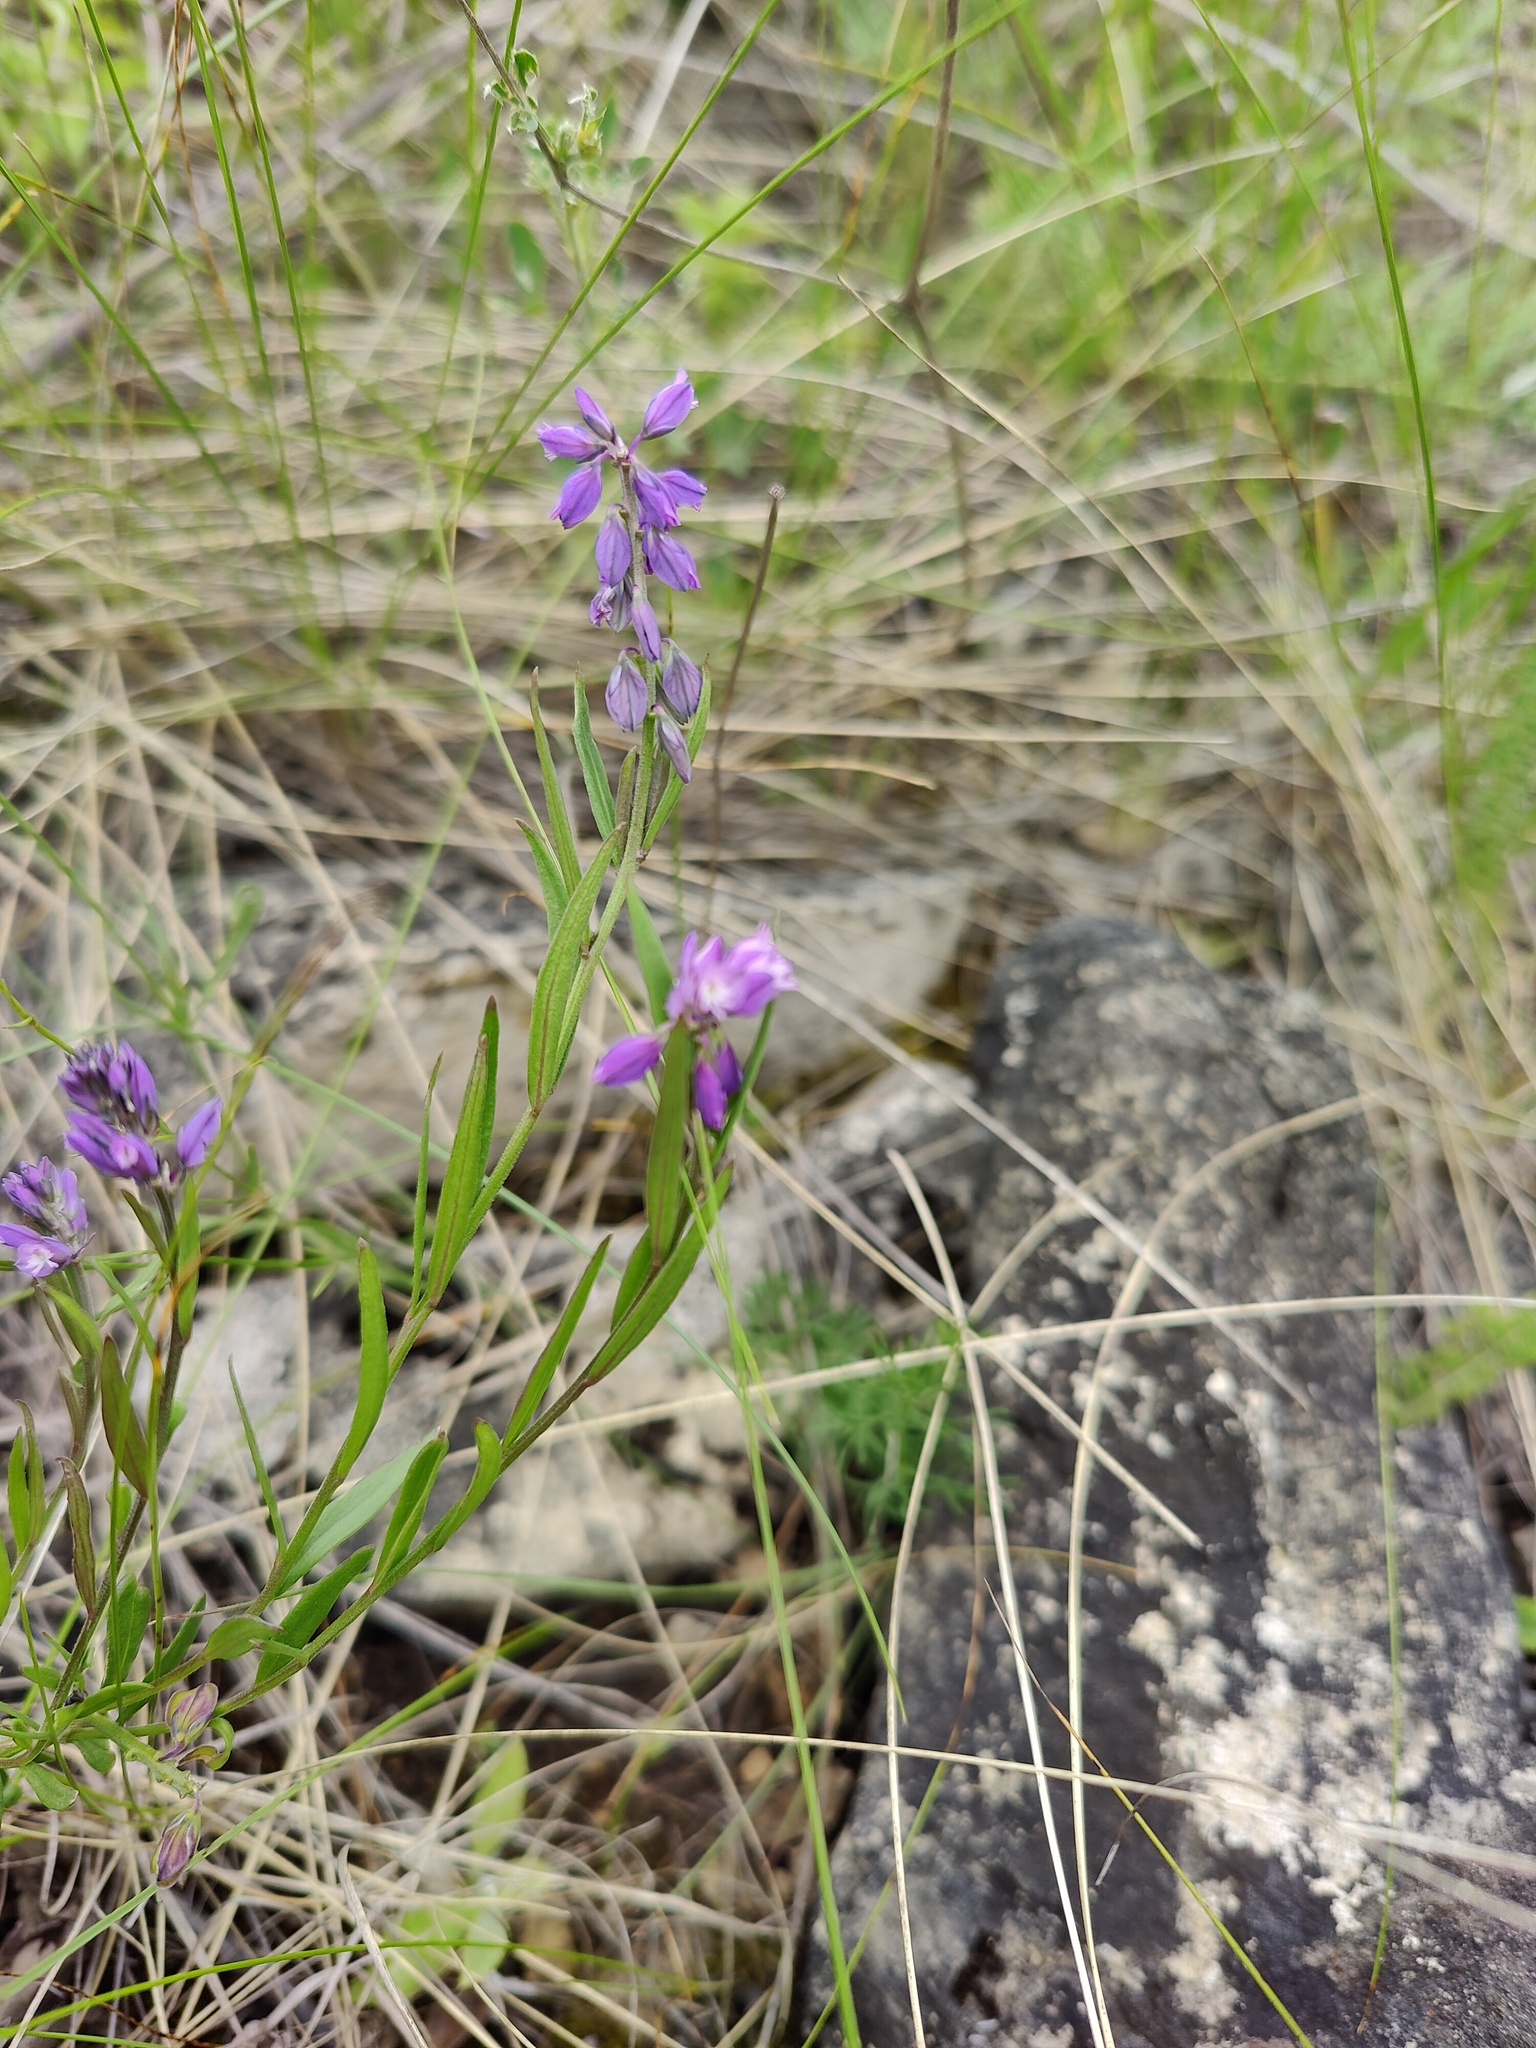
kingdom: Plantae
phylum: Tracheophyta
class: Magnoliopsida
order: Fabales
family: Polygalaceae
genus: Polygala
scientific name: Polygala comosa
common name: Tufted milkwort
